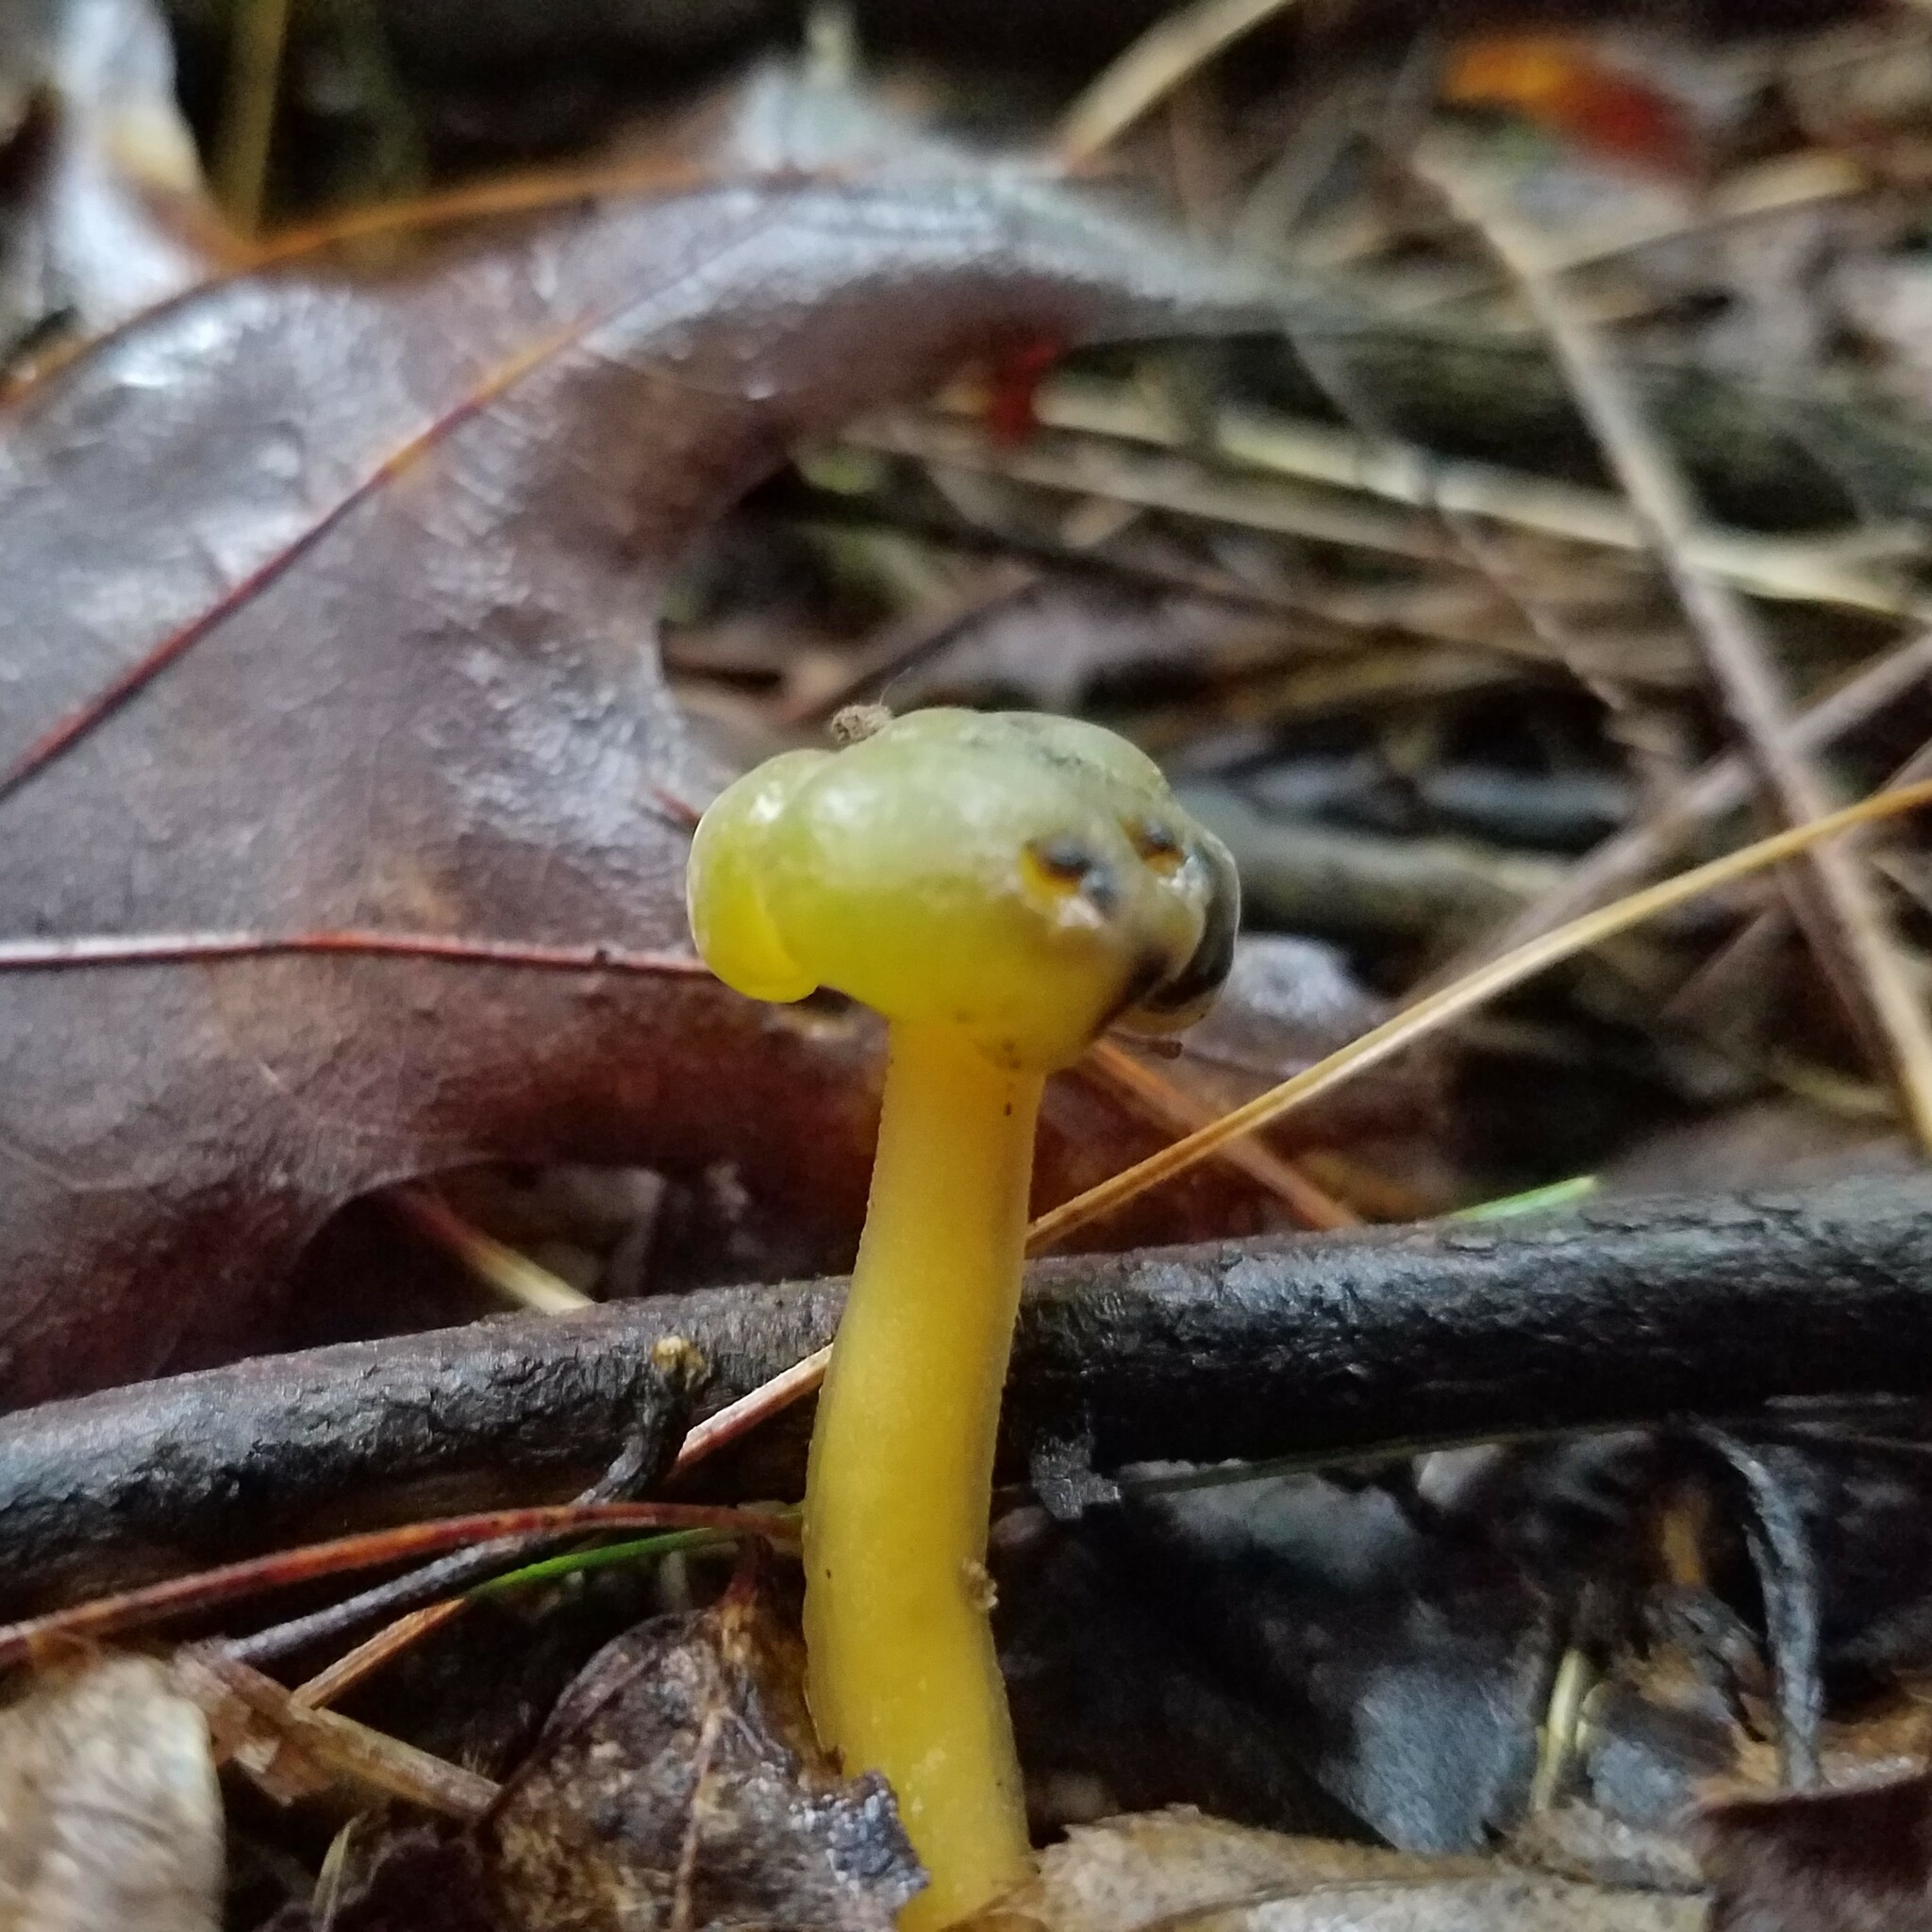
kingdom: Fungi
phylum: Ascomycota
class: Leotiomycetes
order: Leotiales
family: Leotiaceae
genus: Leotia
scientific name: Leotia lubrica
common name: Jellybaby
